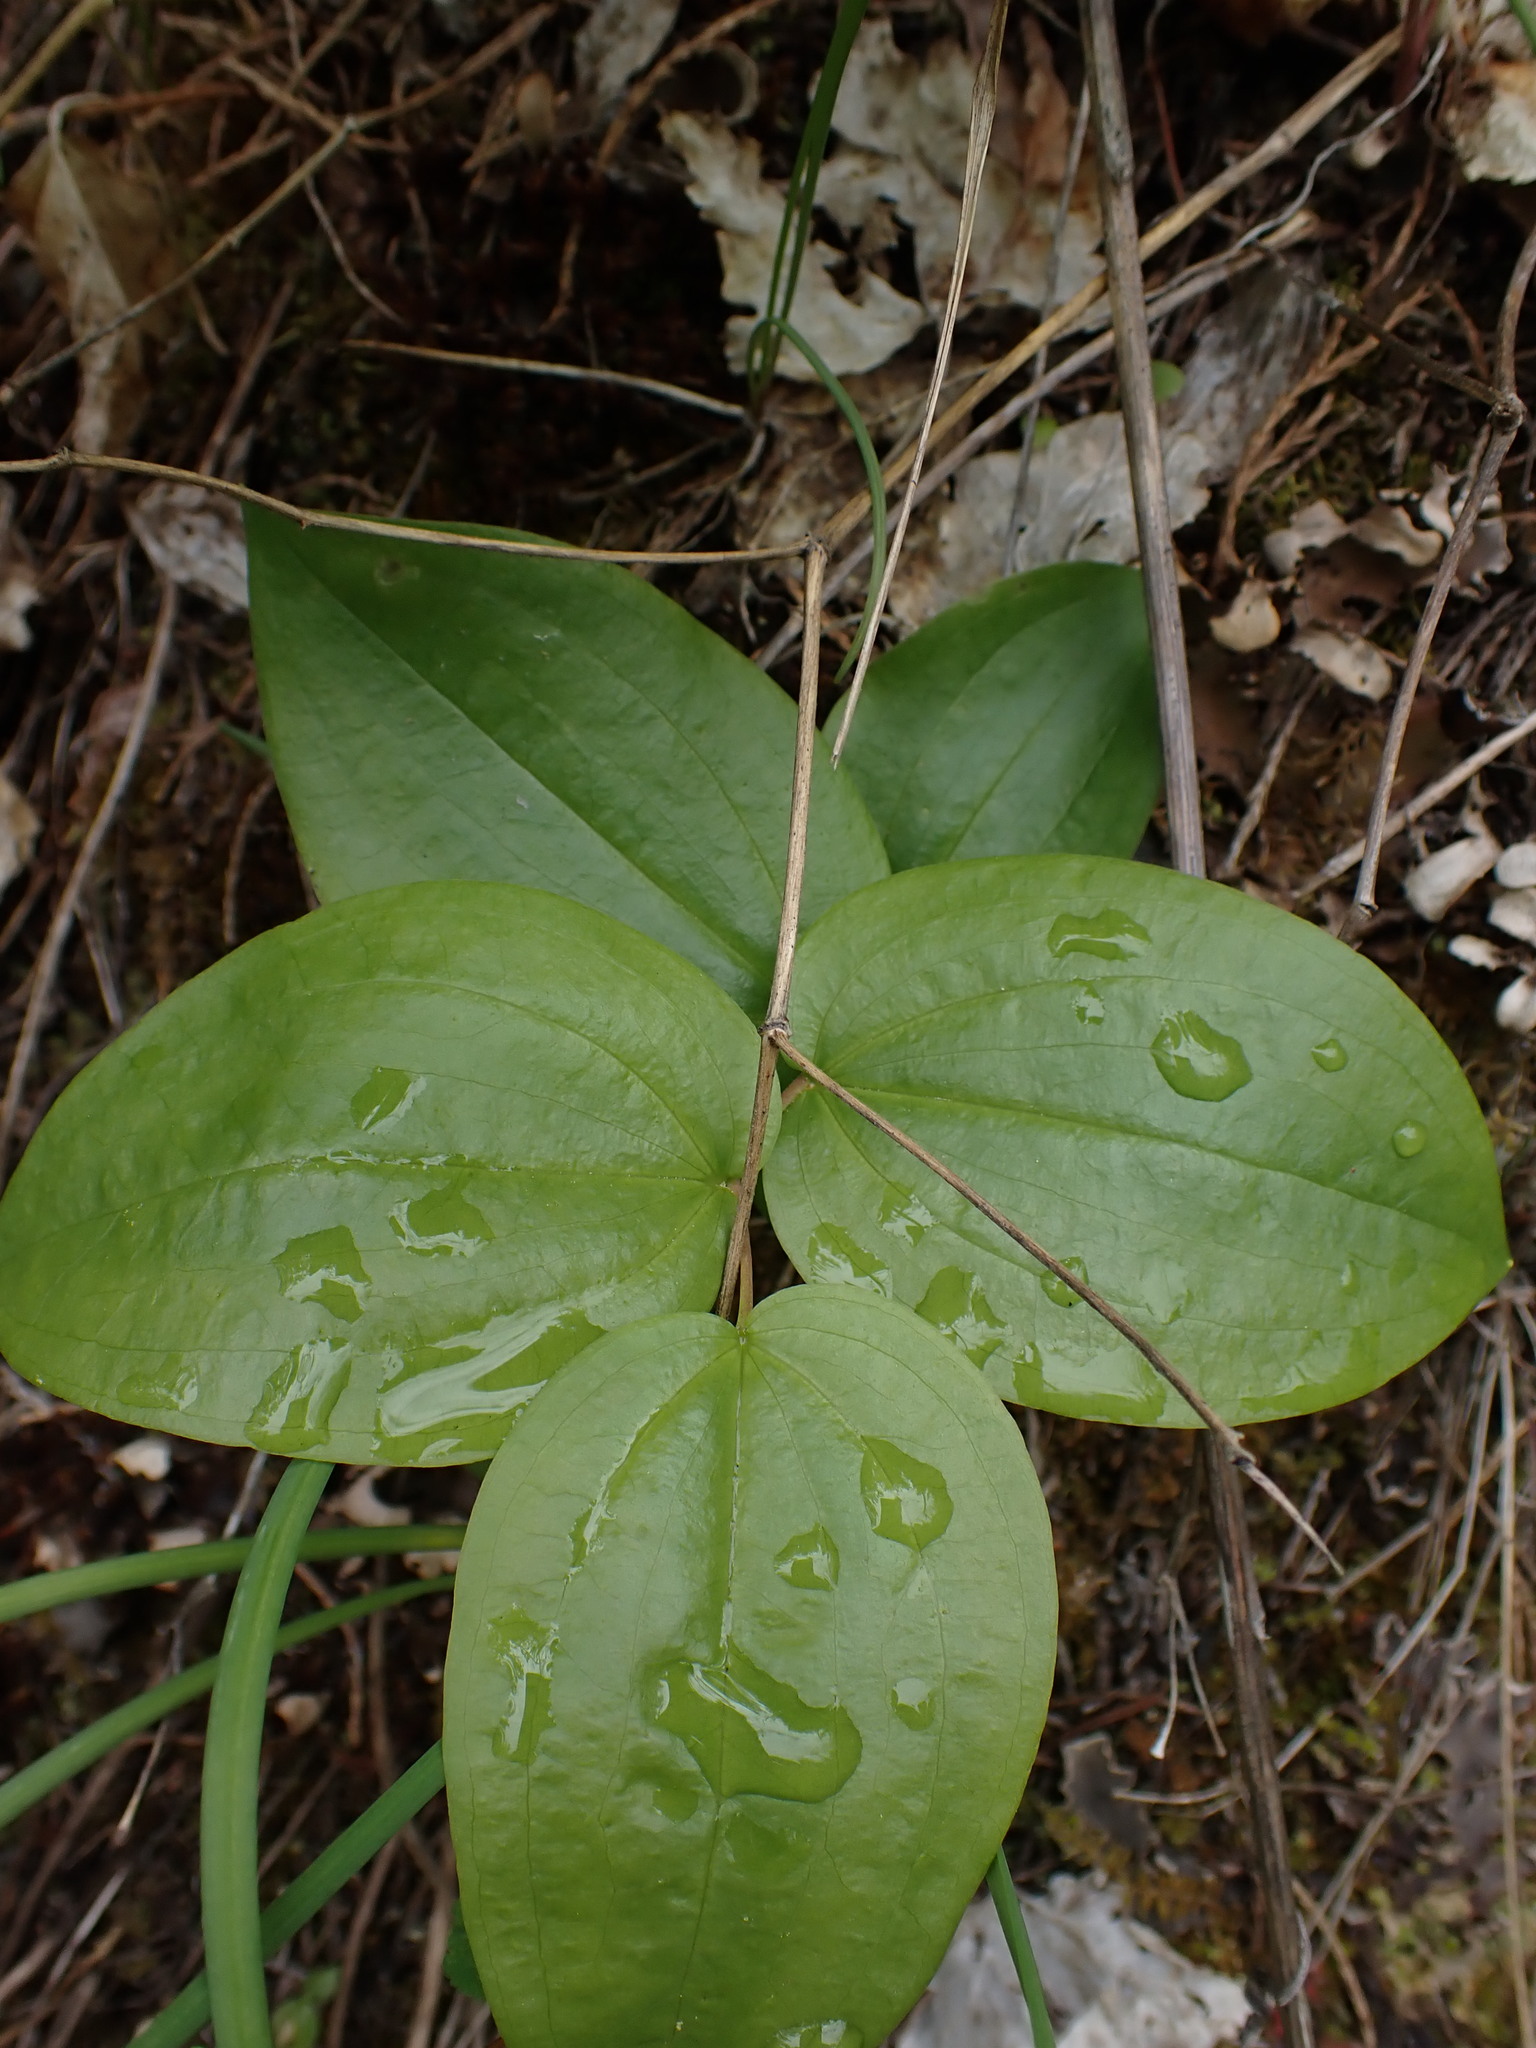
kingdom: Plantae
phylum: Tracheophyta
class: Liliopsida
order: Liliales
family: Liliaceae
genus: Prosartes
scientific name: Prosartes trachycarpa
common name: Rough-fruit fairy-bells
